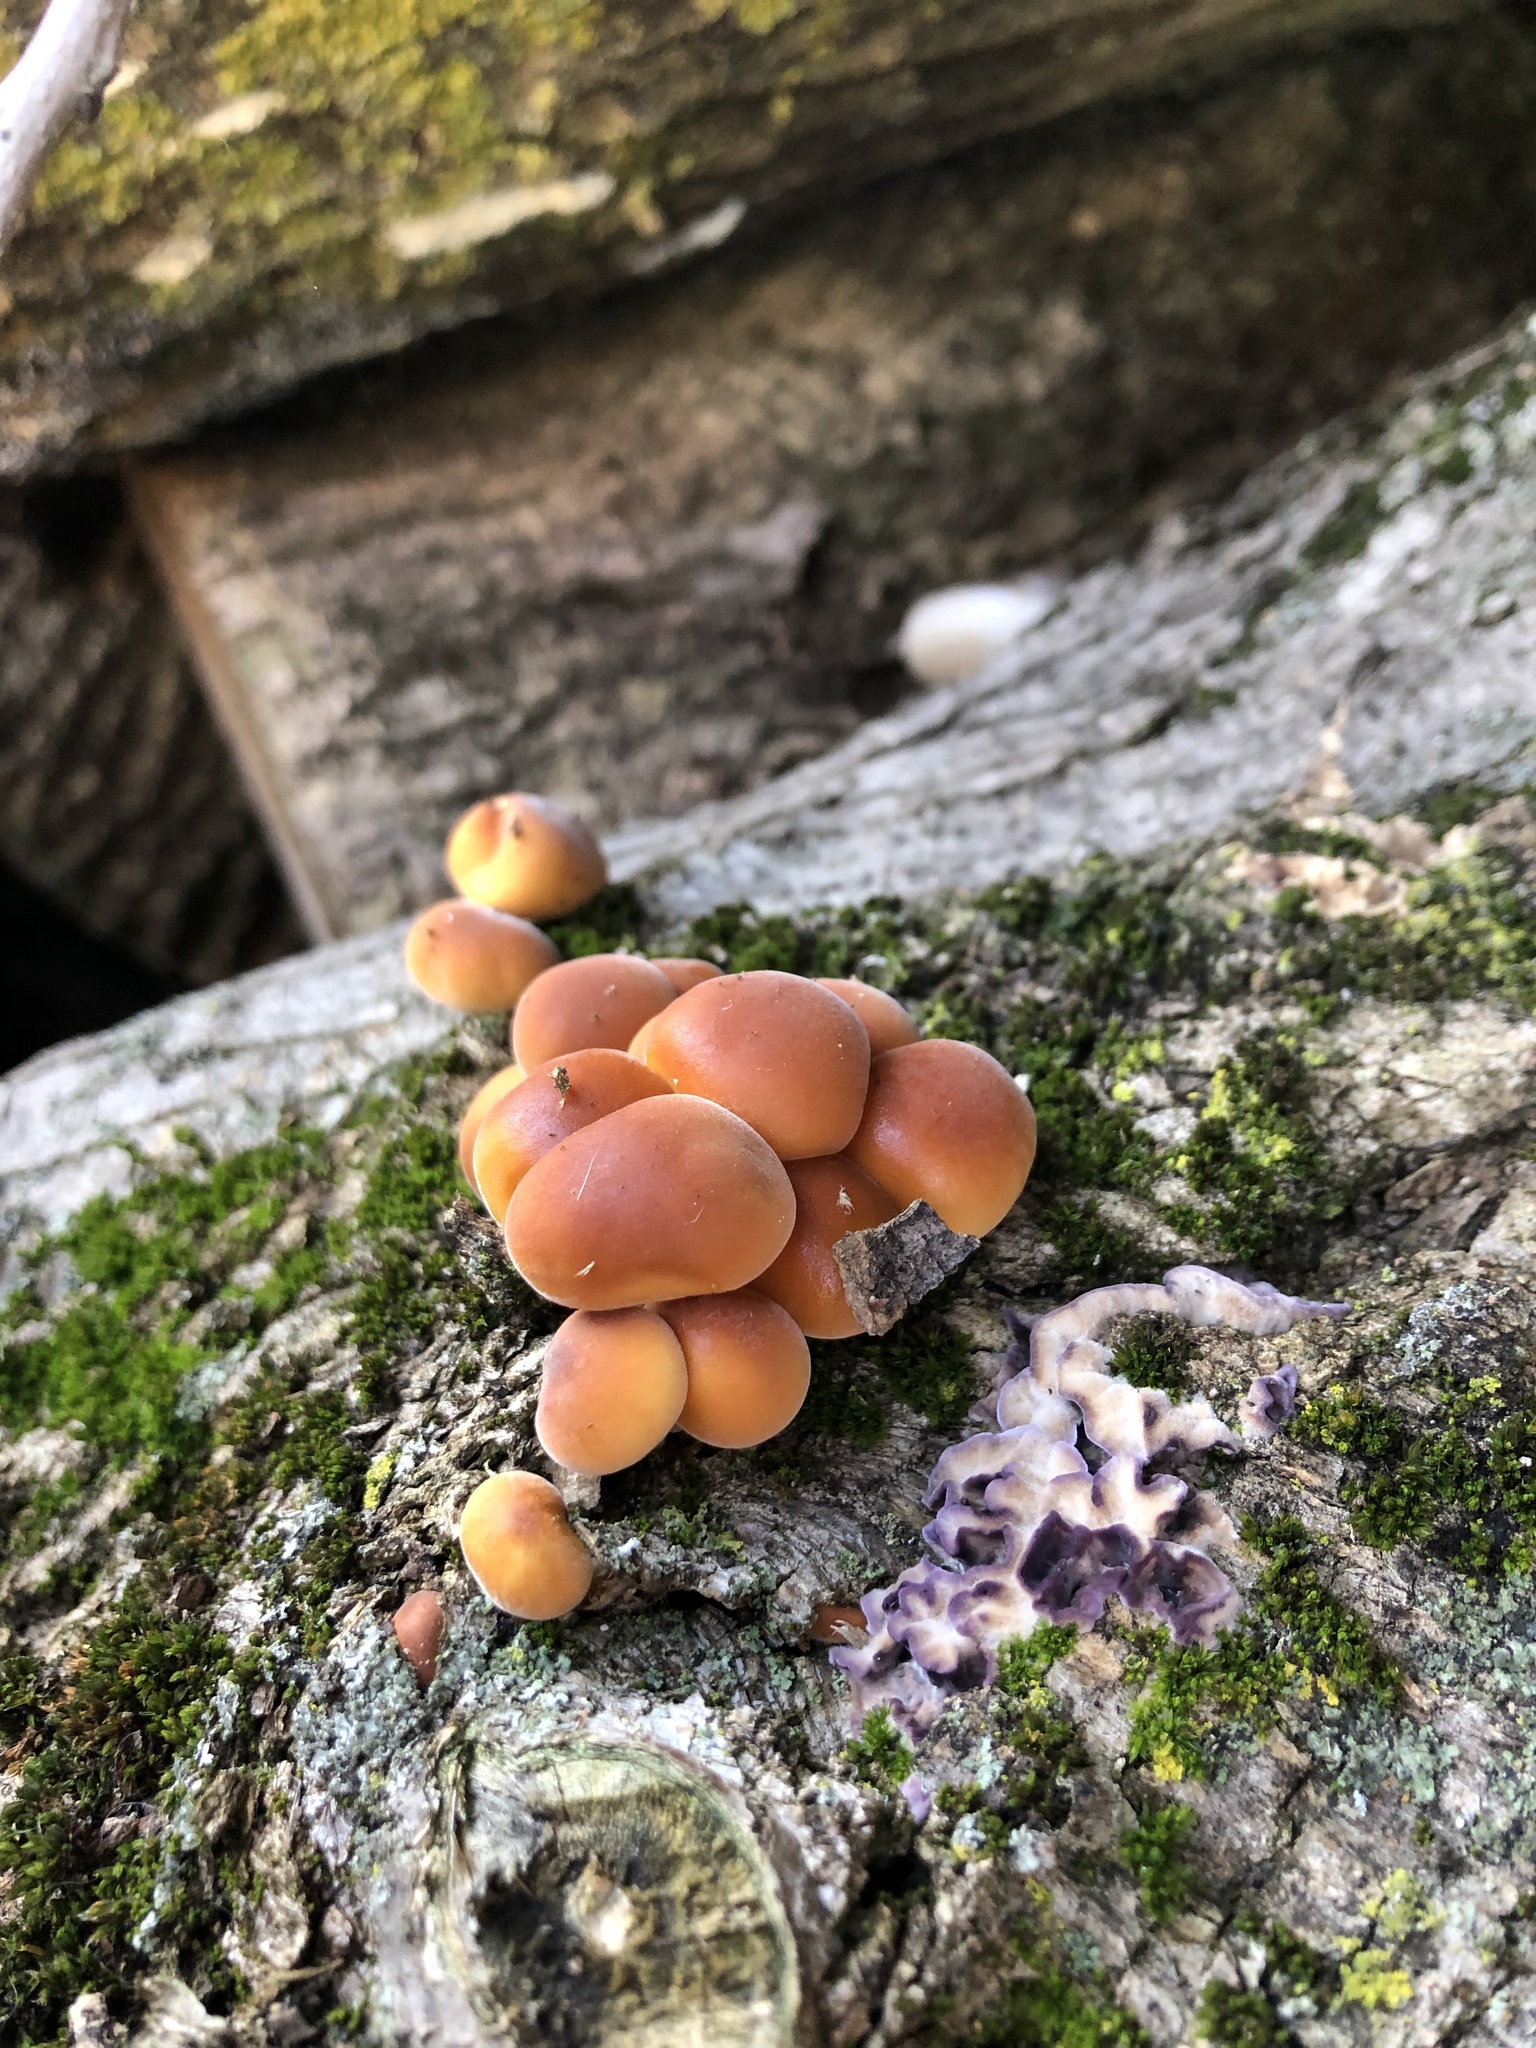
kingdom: Fungi
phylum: Basidiomycota
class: Agaricomycetes
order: Agaricales
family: Physalacriaceae
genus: Flammulina
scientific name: Flammulina
